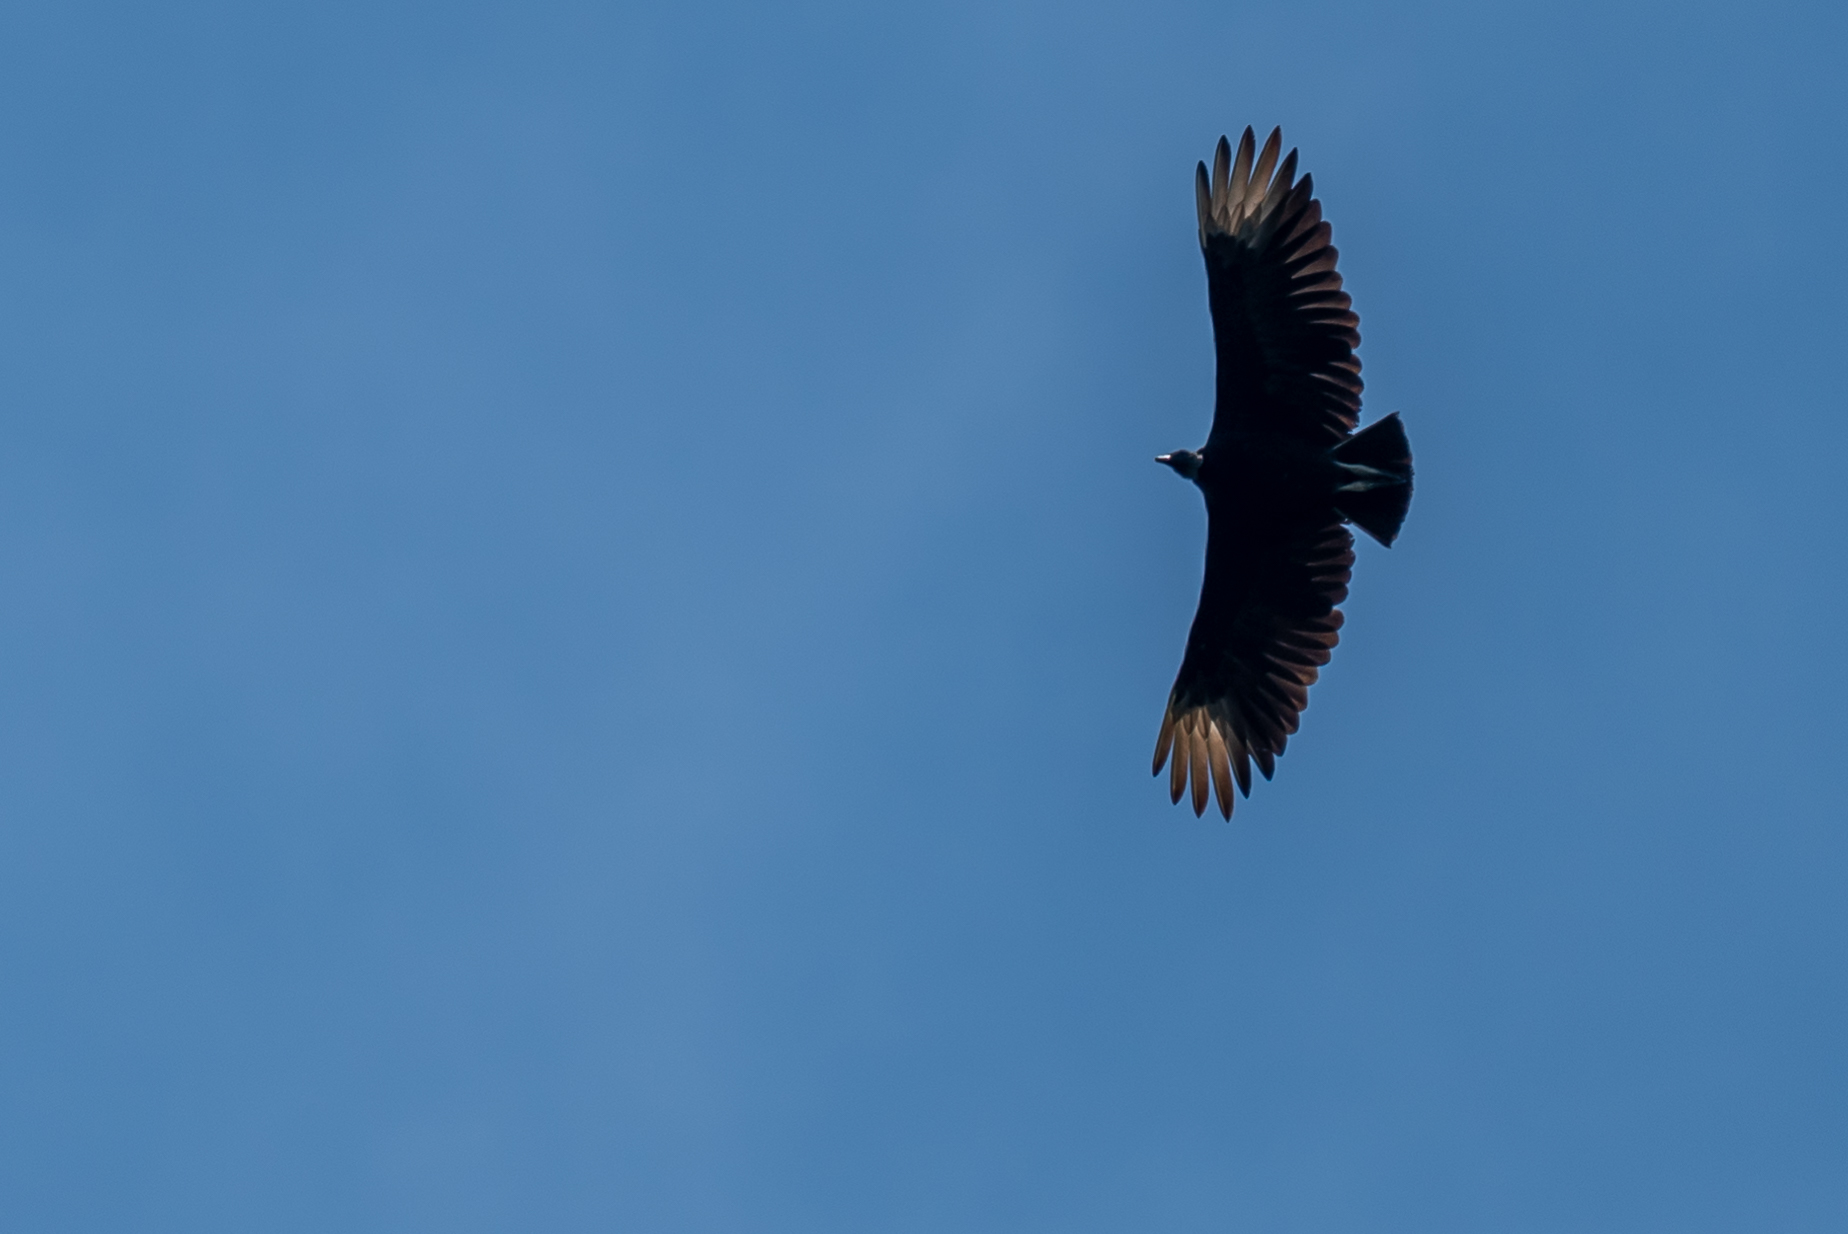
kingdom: Animalia
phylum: Chordata
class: Aves
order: Accipitriformes
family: Cathartidae
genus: Coragyps
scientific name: Coragyps atratus
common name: Black vulture
